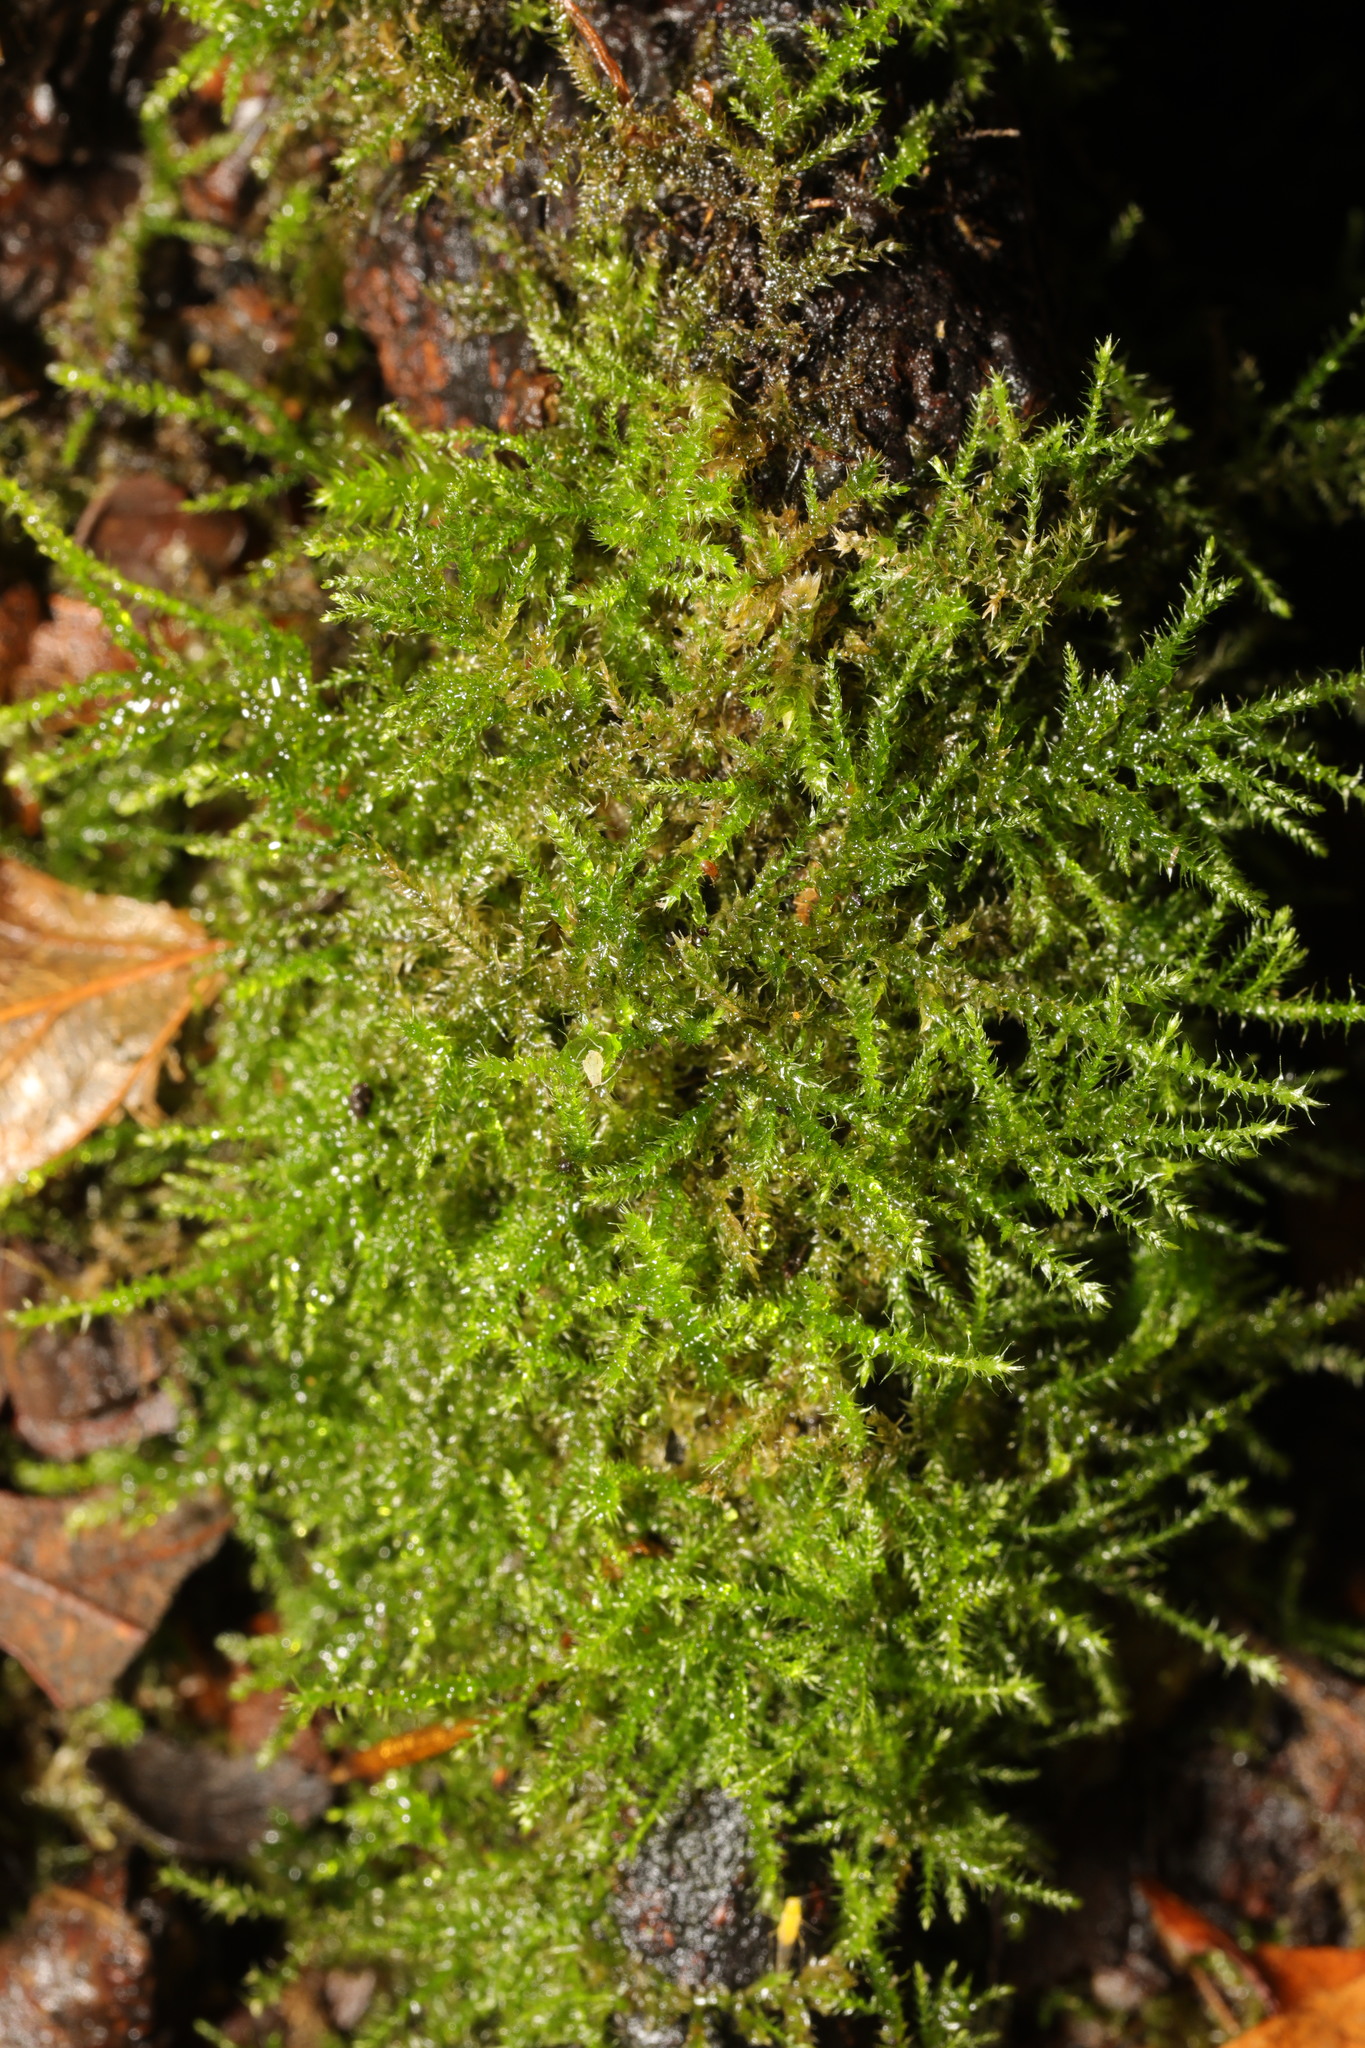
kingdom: Plantae
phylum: Bryophyta
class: Bryopsida
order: Hypnales
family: Brachytheciaceae
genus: Kindbergia
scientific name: Kindbergia praelonga
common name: Slender beaked moss
